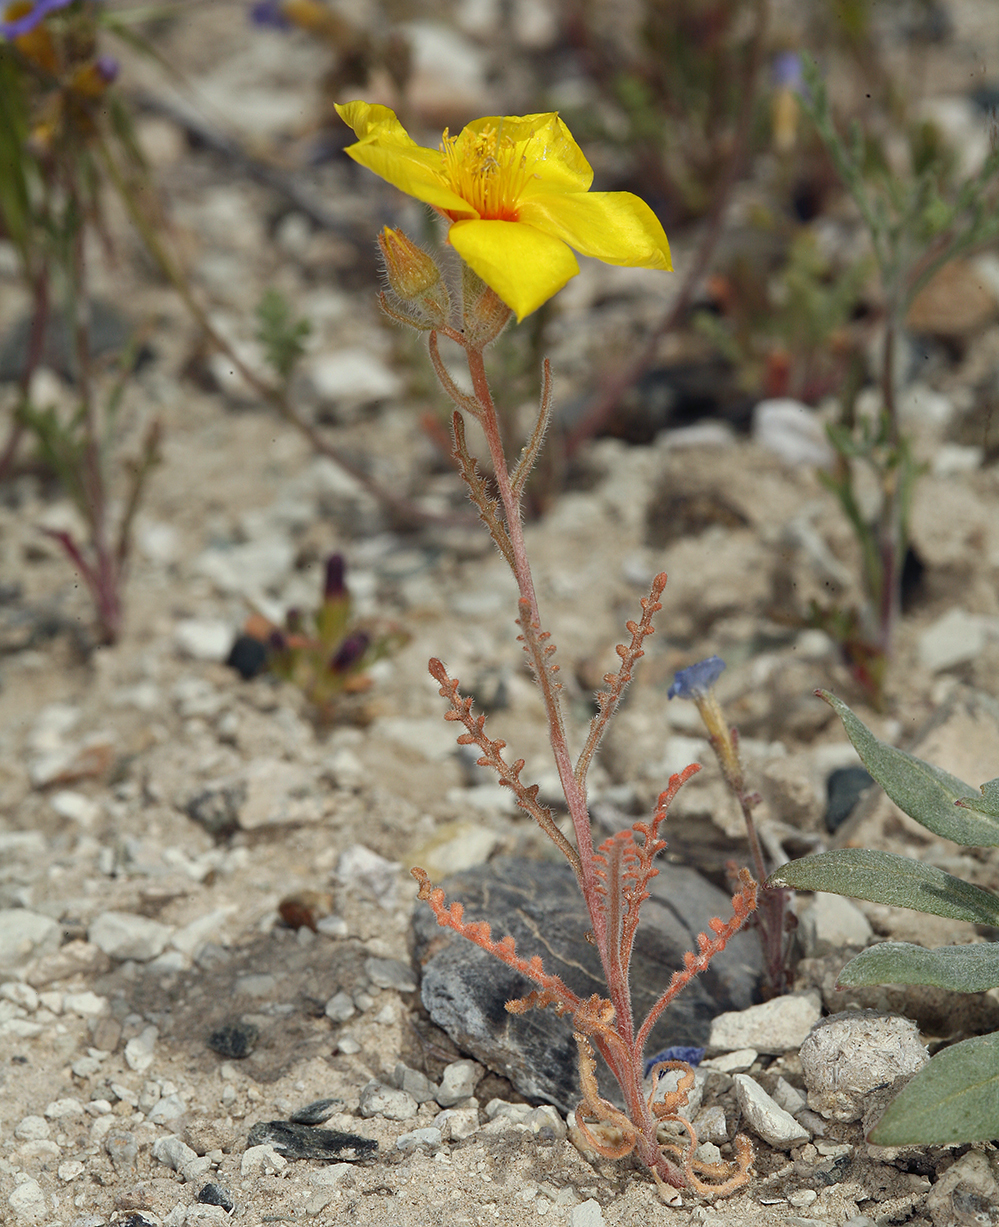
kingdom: Plantae
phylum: Tracheophyta
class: Magnoliopsida
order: Cornales
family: Loasaceae
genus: Mentzelia
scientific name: Mentzelia nitens
